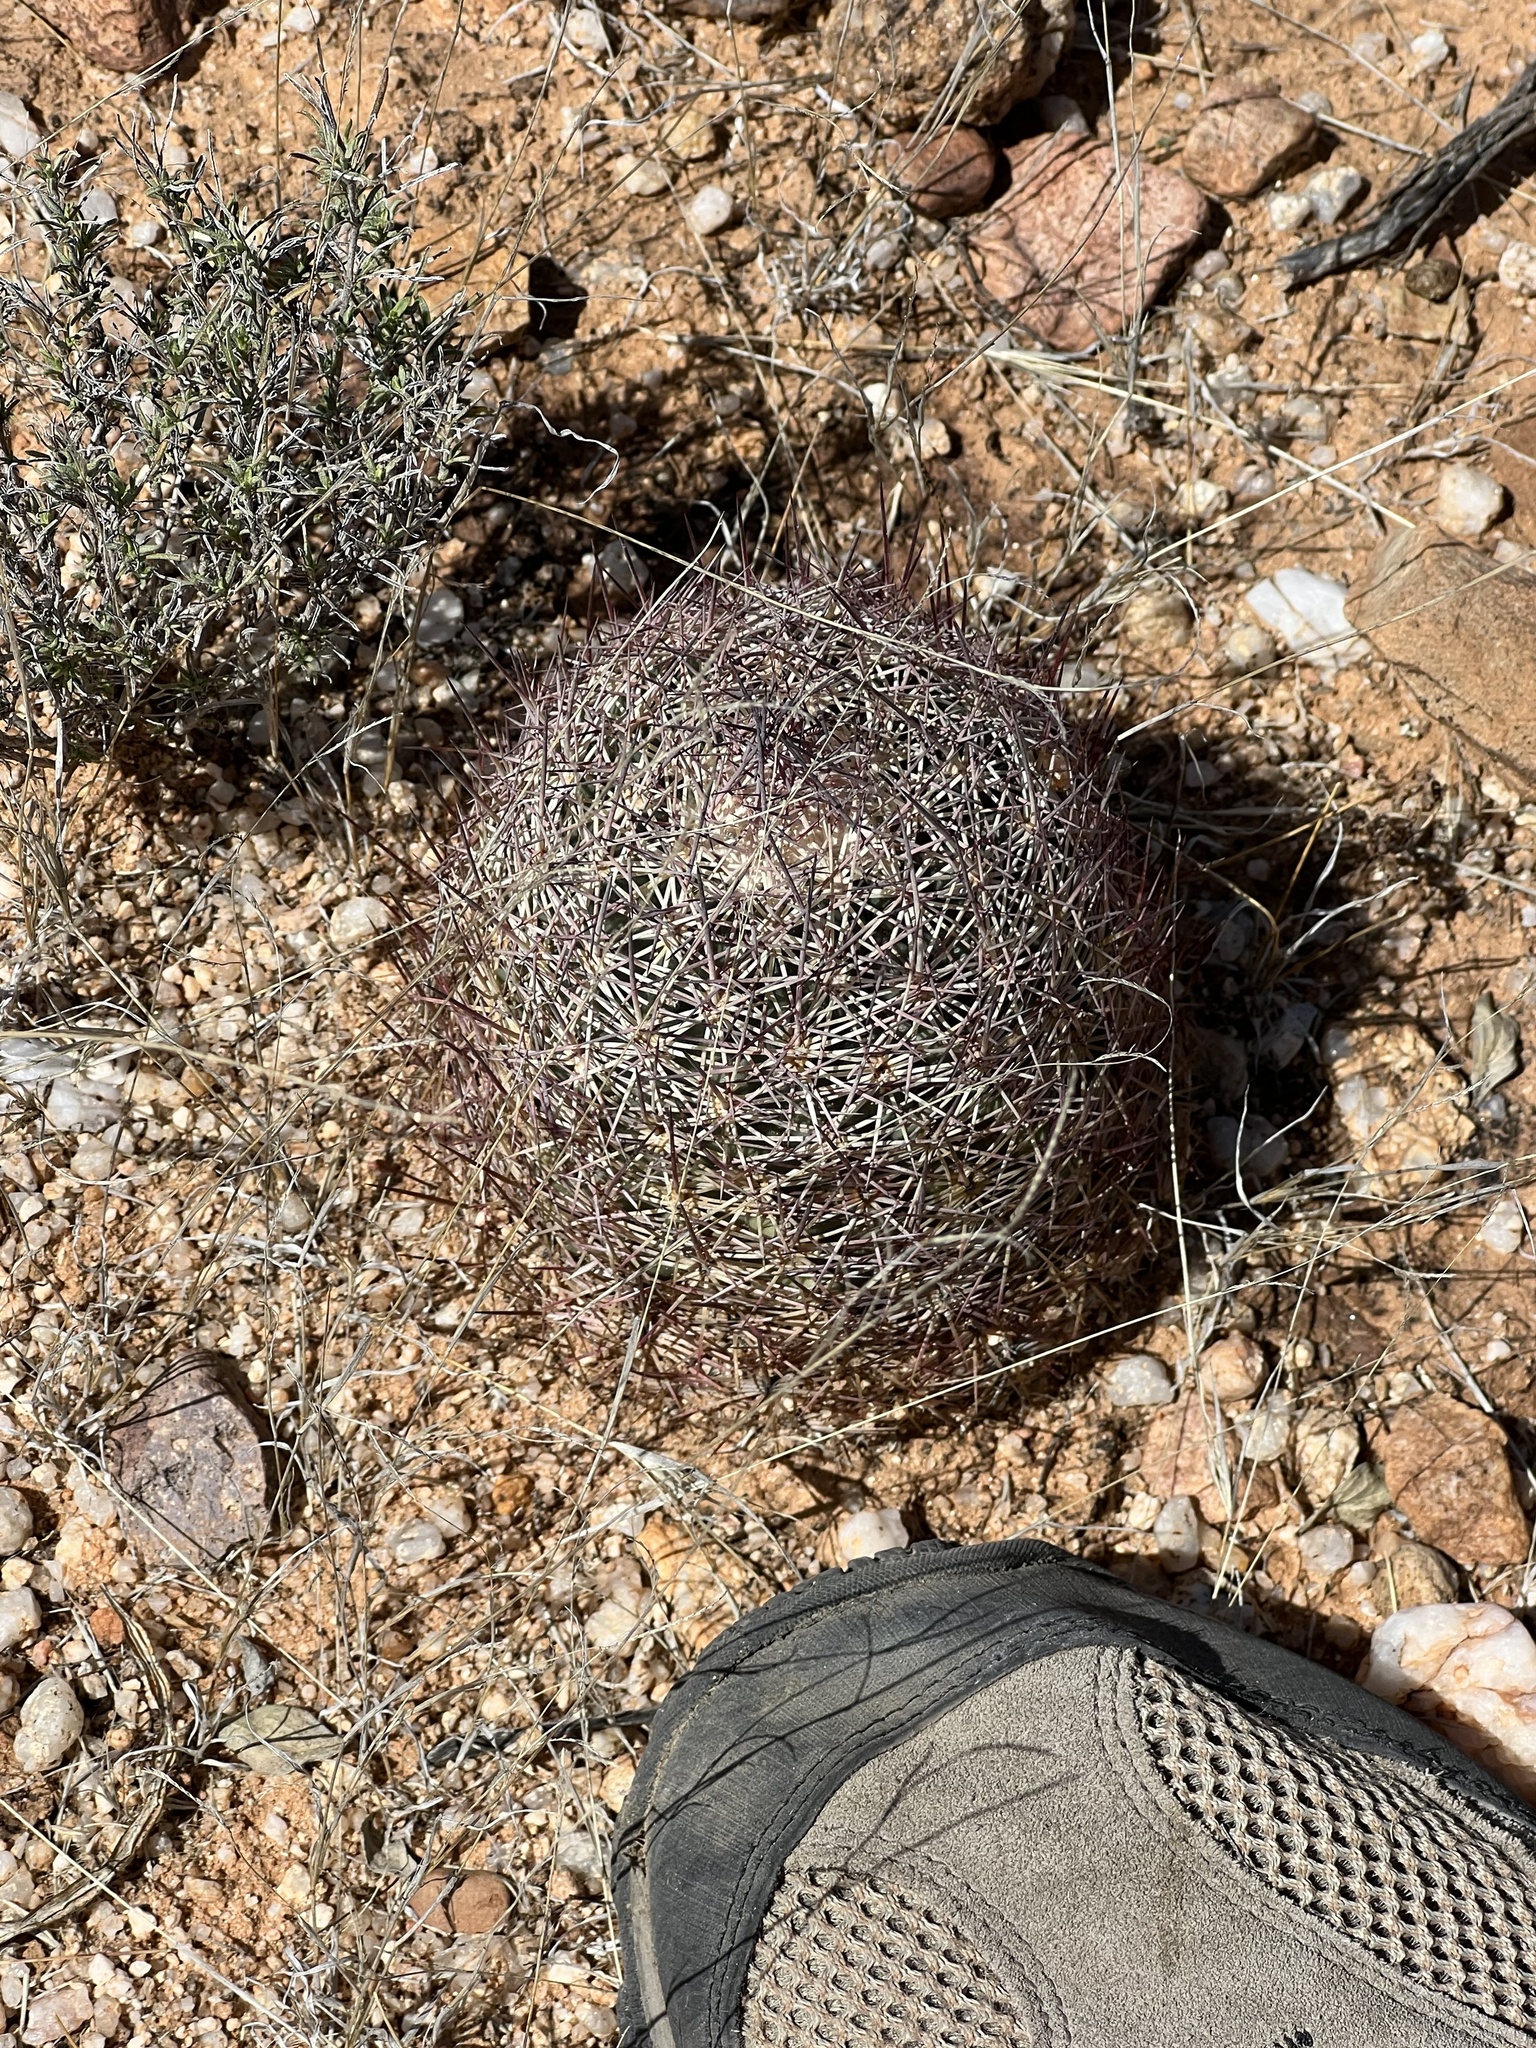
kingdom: Plantae
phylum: Tracheophyta
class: Magnoliopsida
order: Caryophyllales
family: Cactaceae
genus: Sclerocactus
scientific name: Sclerocactus johnsonii
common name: Eight-spine fishhook cactus
